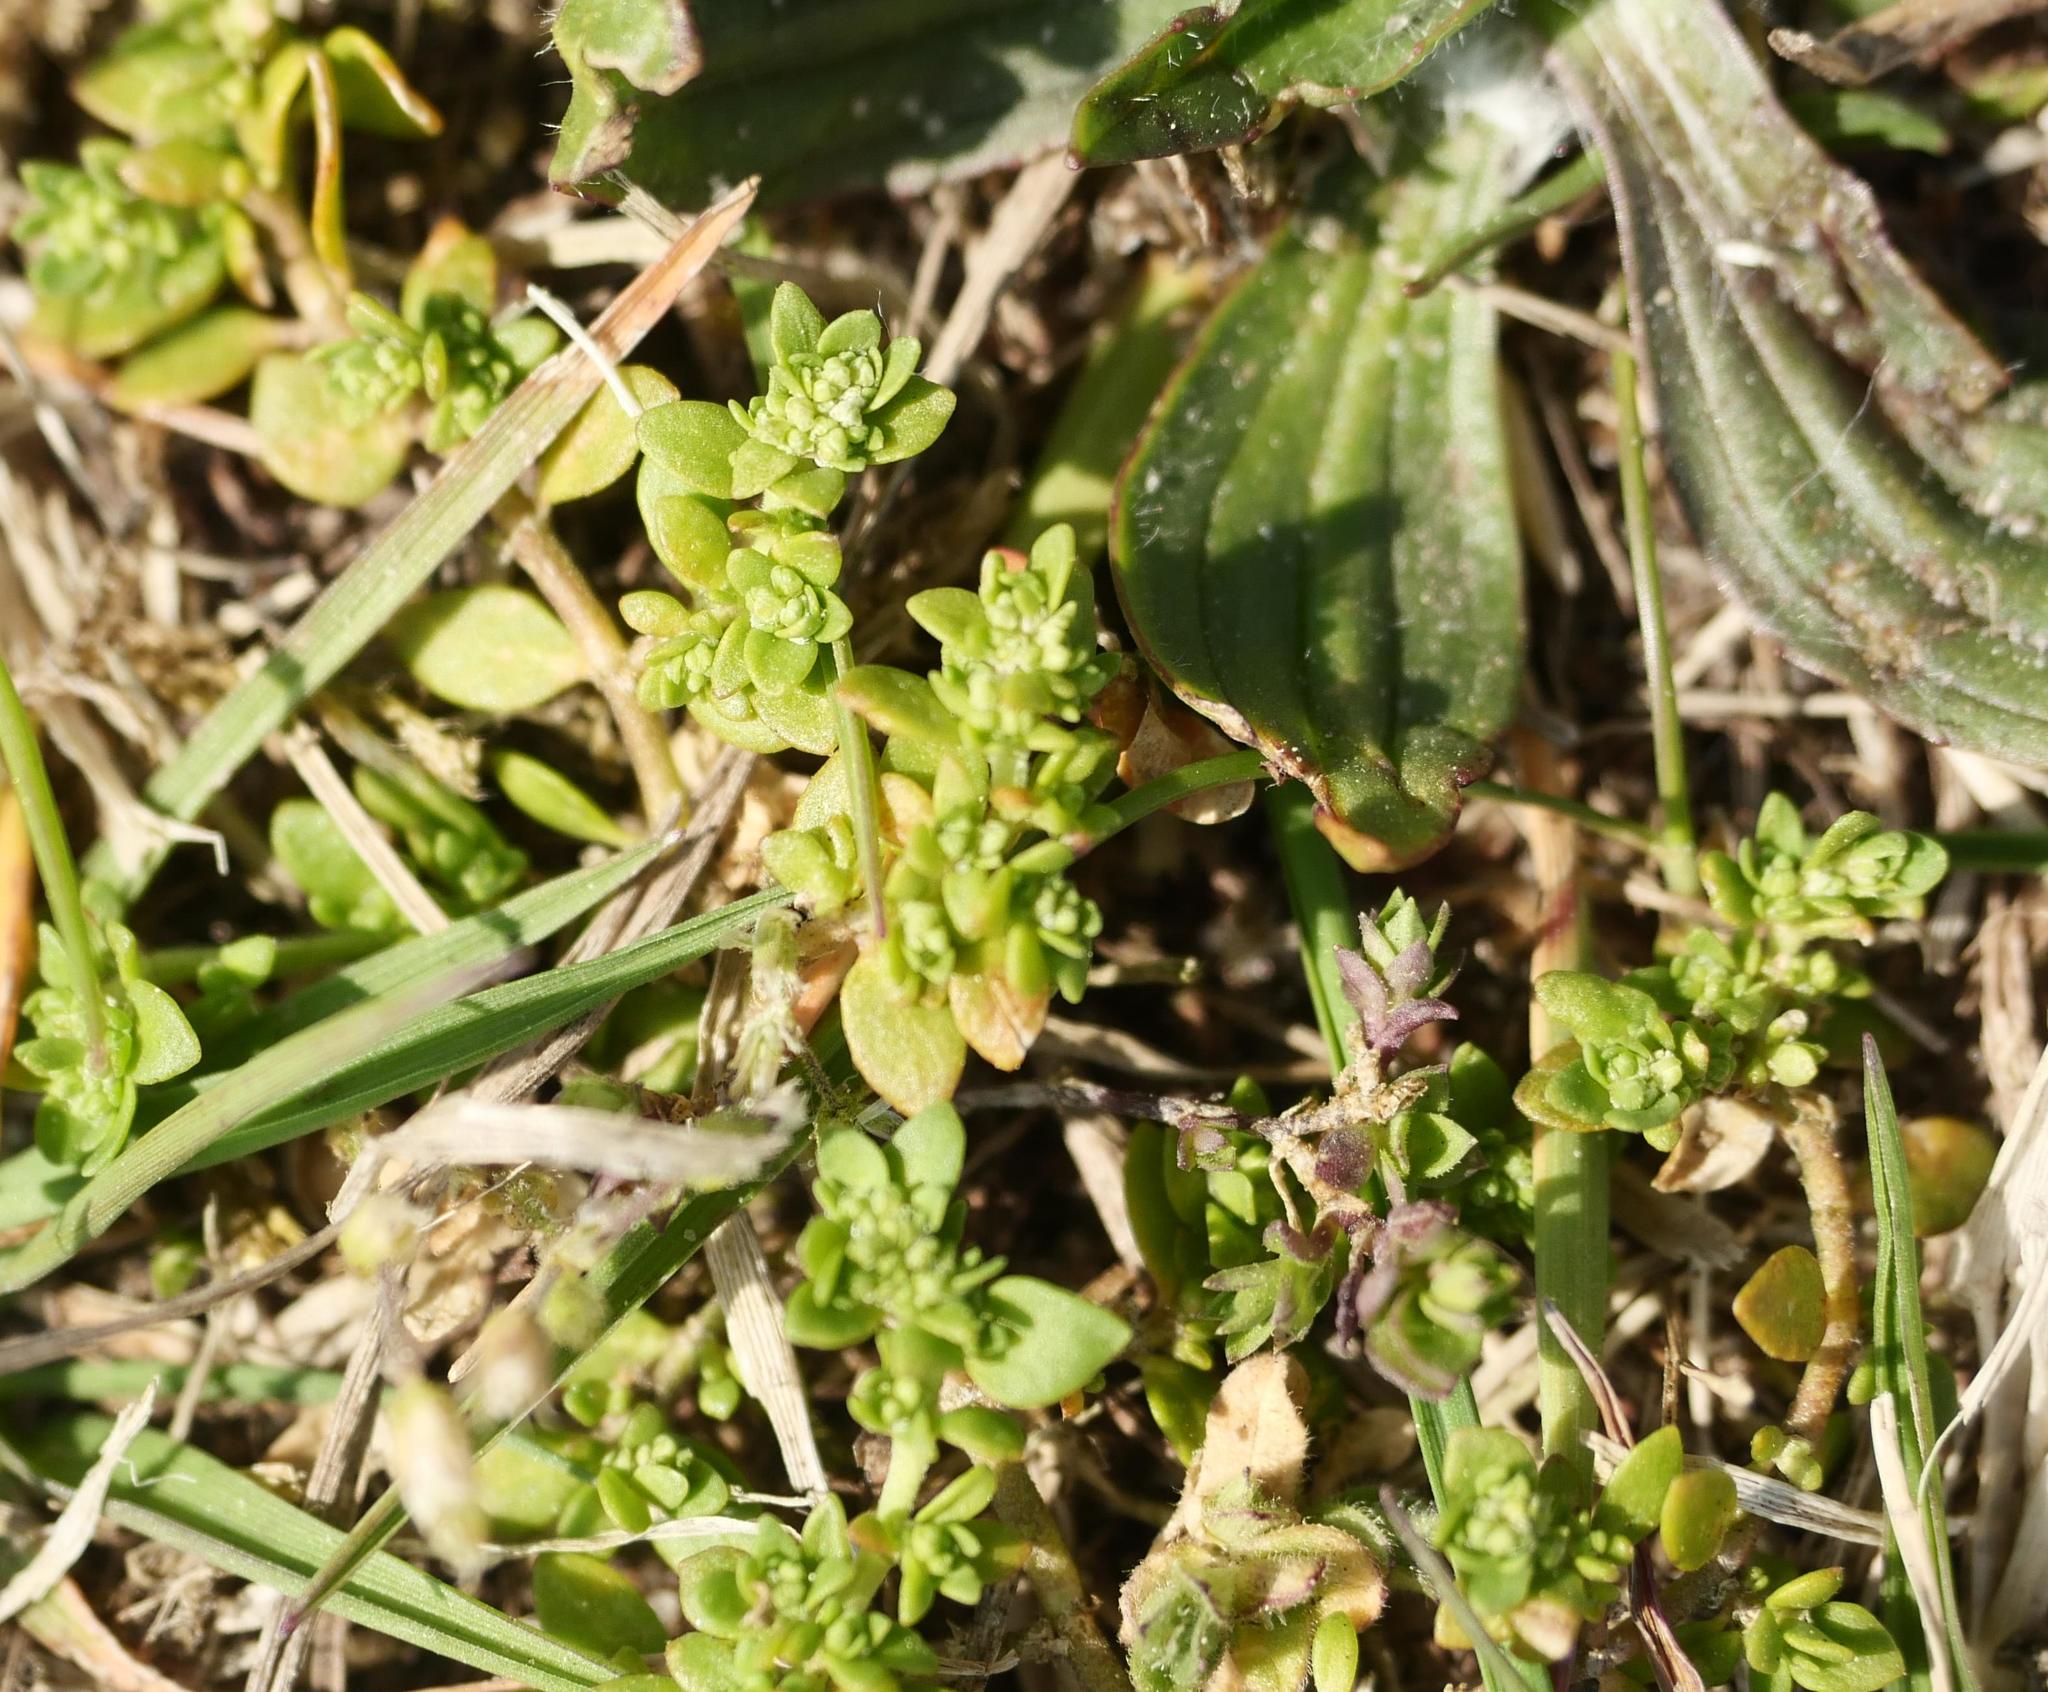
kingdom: Plantae
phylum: Tracheophyta
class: Magnoliopsida
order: Caryophyllales
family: Caryophyllaceae
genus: Herniaria
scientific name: Herniaria glabra
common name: Smooth rupturewort
